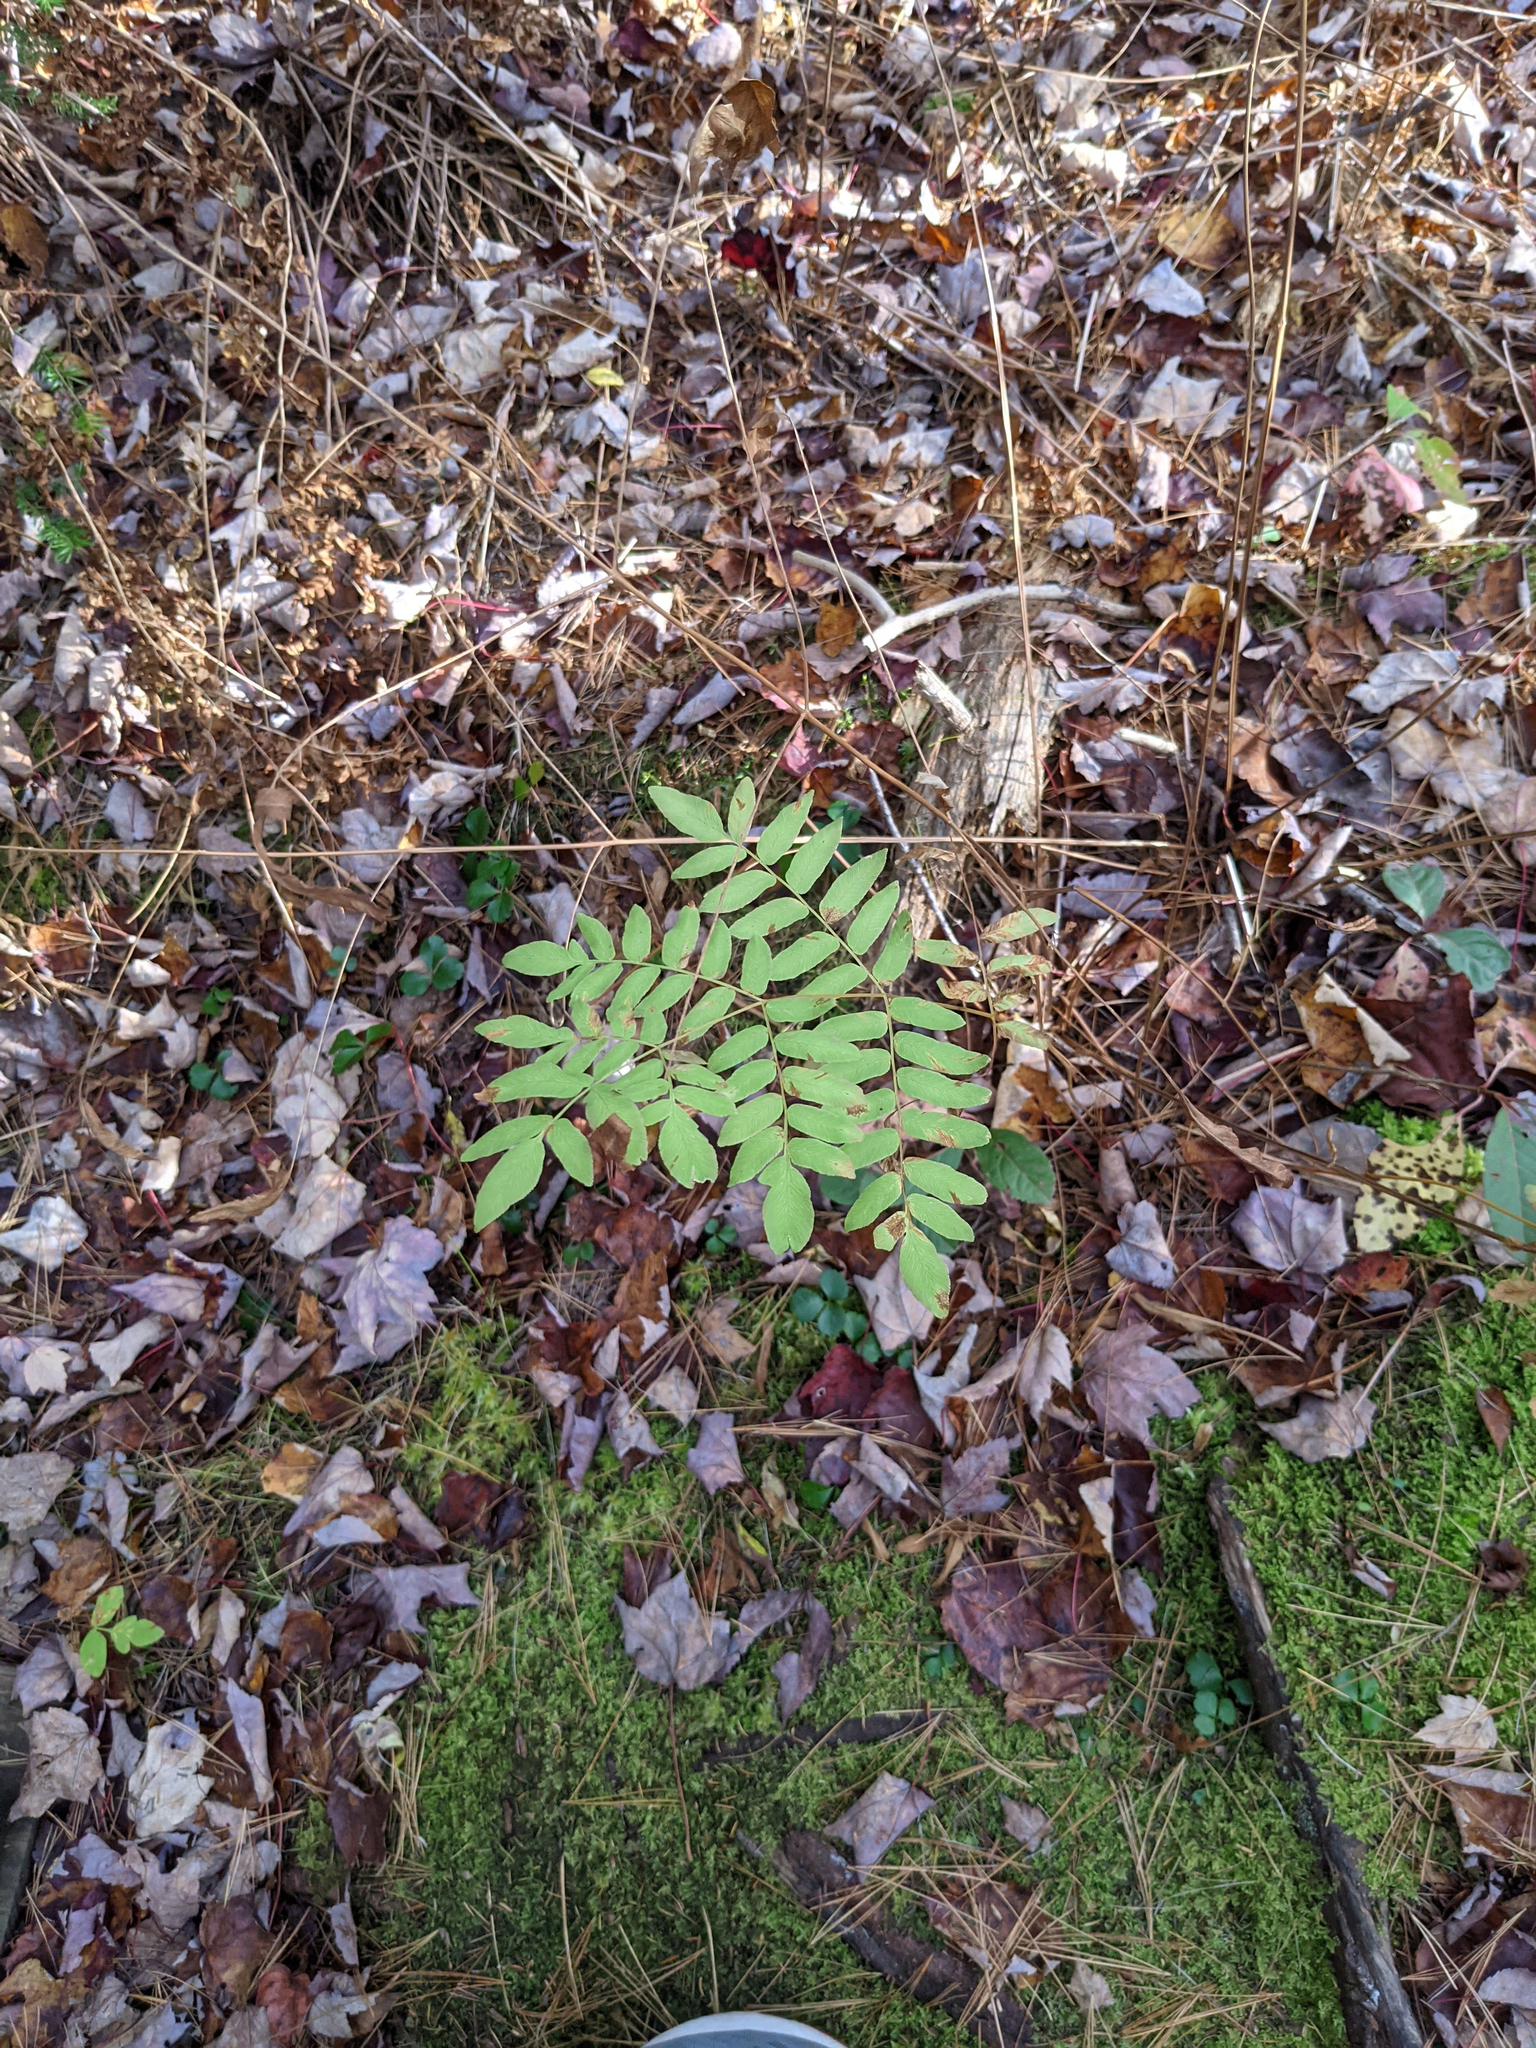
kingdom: Plantae
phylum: Tracheophyta
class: Polypodiopsida
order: Osmundales
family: Osmundaceae
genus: Osmunda
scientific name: Osmunda spectabilis
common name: American royal fern
